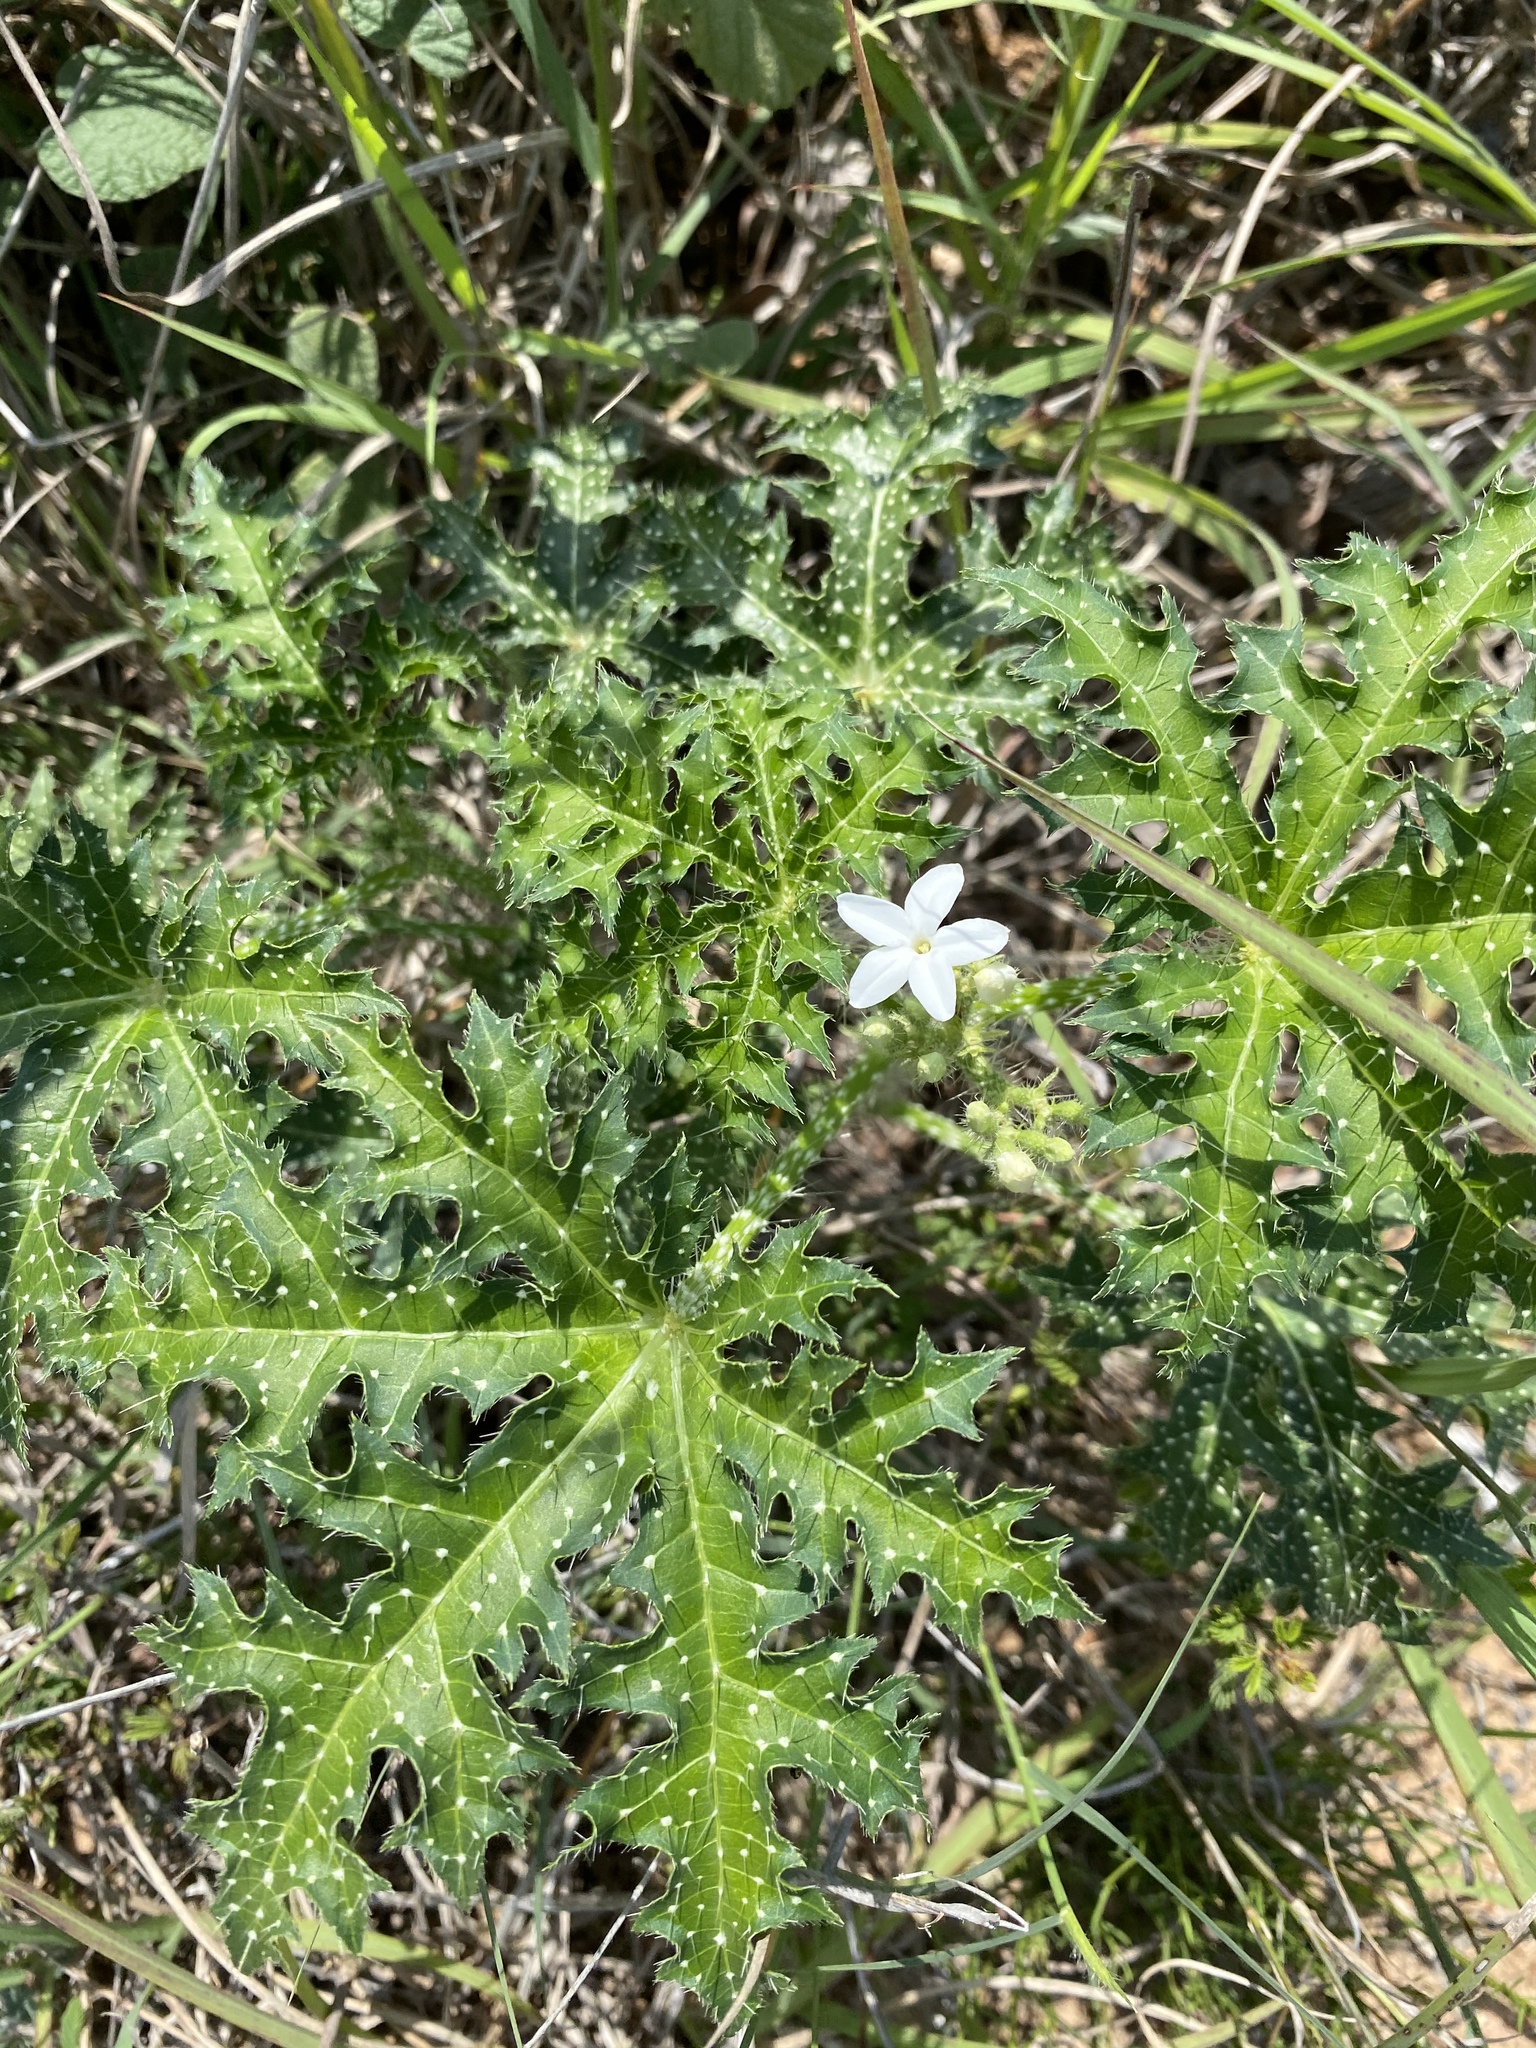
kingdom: Plantae
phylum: Tracheophyta
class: Magnoliopsida
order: Malpighiales
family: Euphorbiaceae
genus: Cnidoscolus
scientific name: Cnidoscolus texanus
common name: Texas bull-nettle
